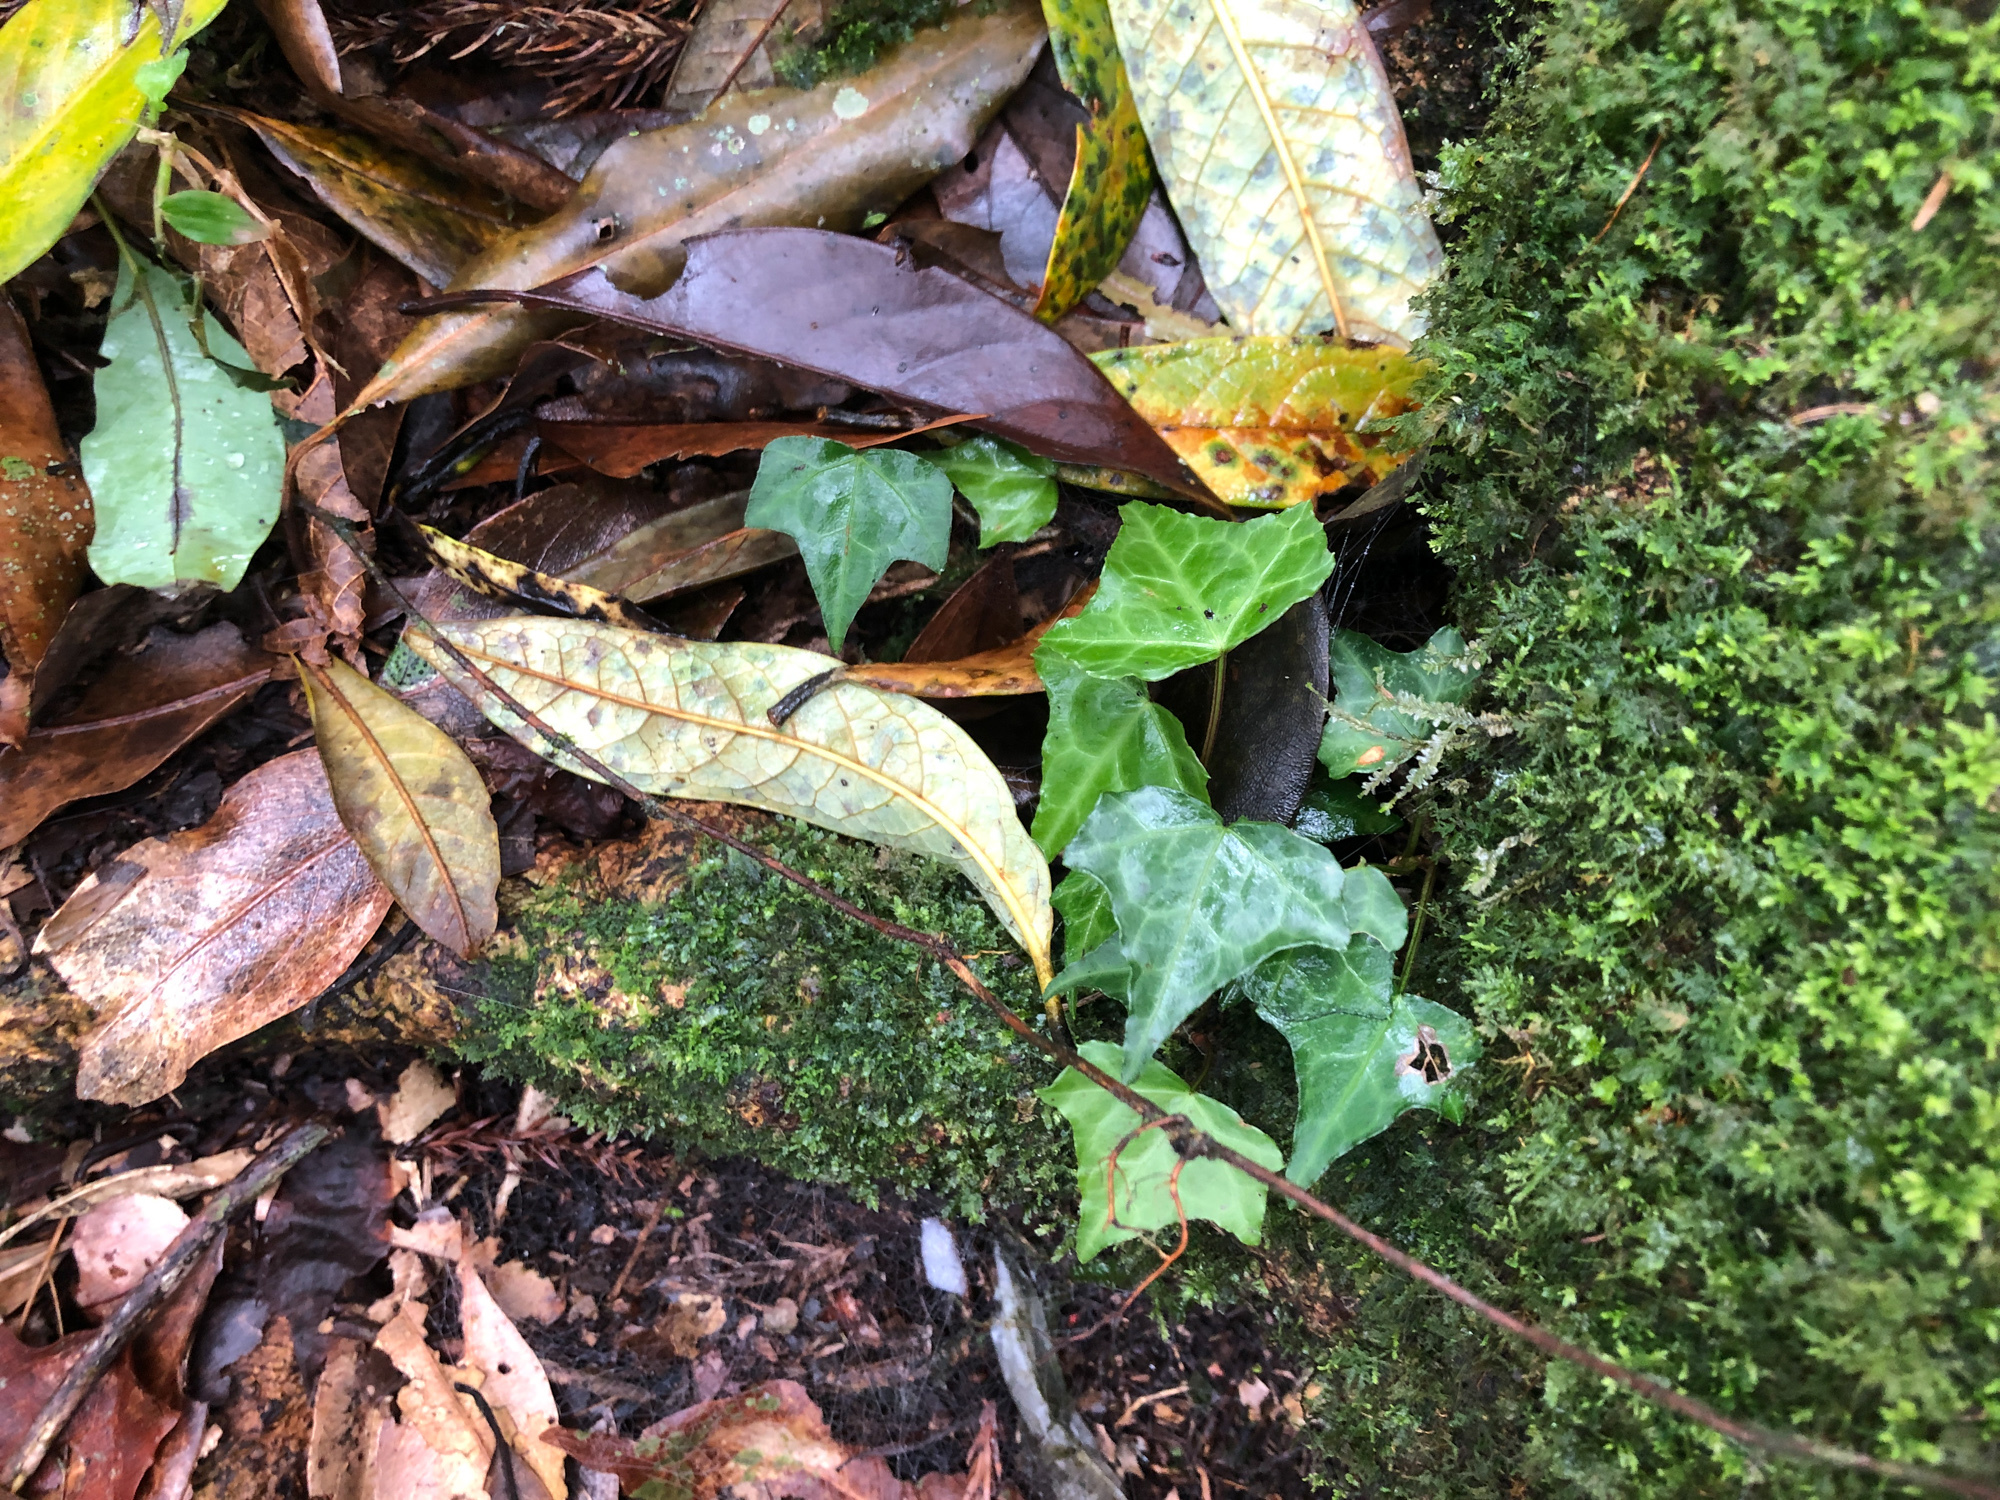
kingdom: Plantae
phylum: Tracheophyta
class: Magnoliopsida
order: Apiales
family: Araliaceae
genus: Hedera
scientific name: Hedera rhombea
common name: Japanese ivy
